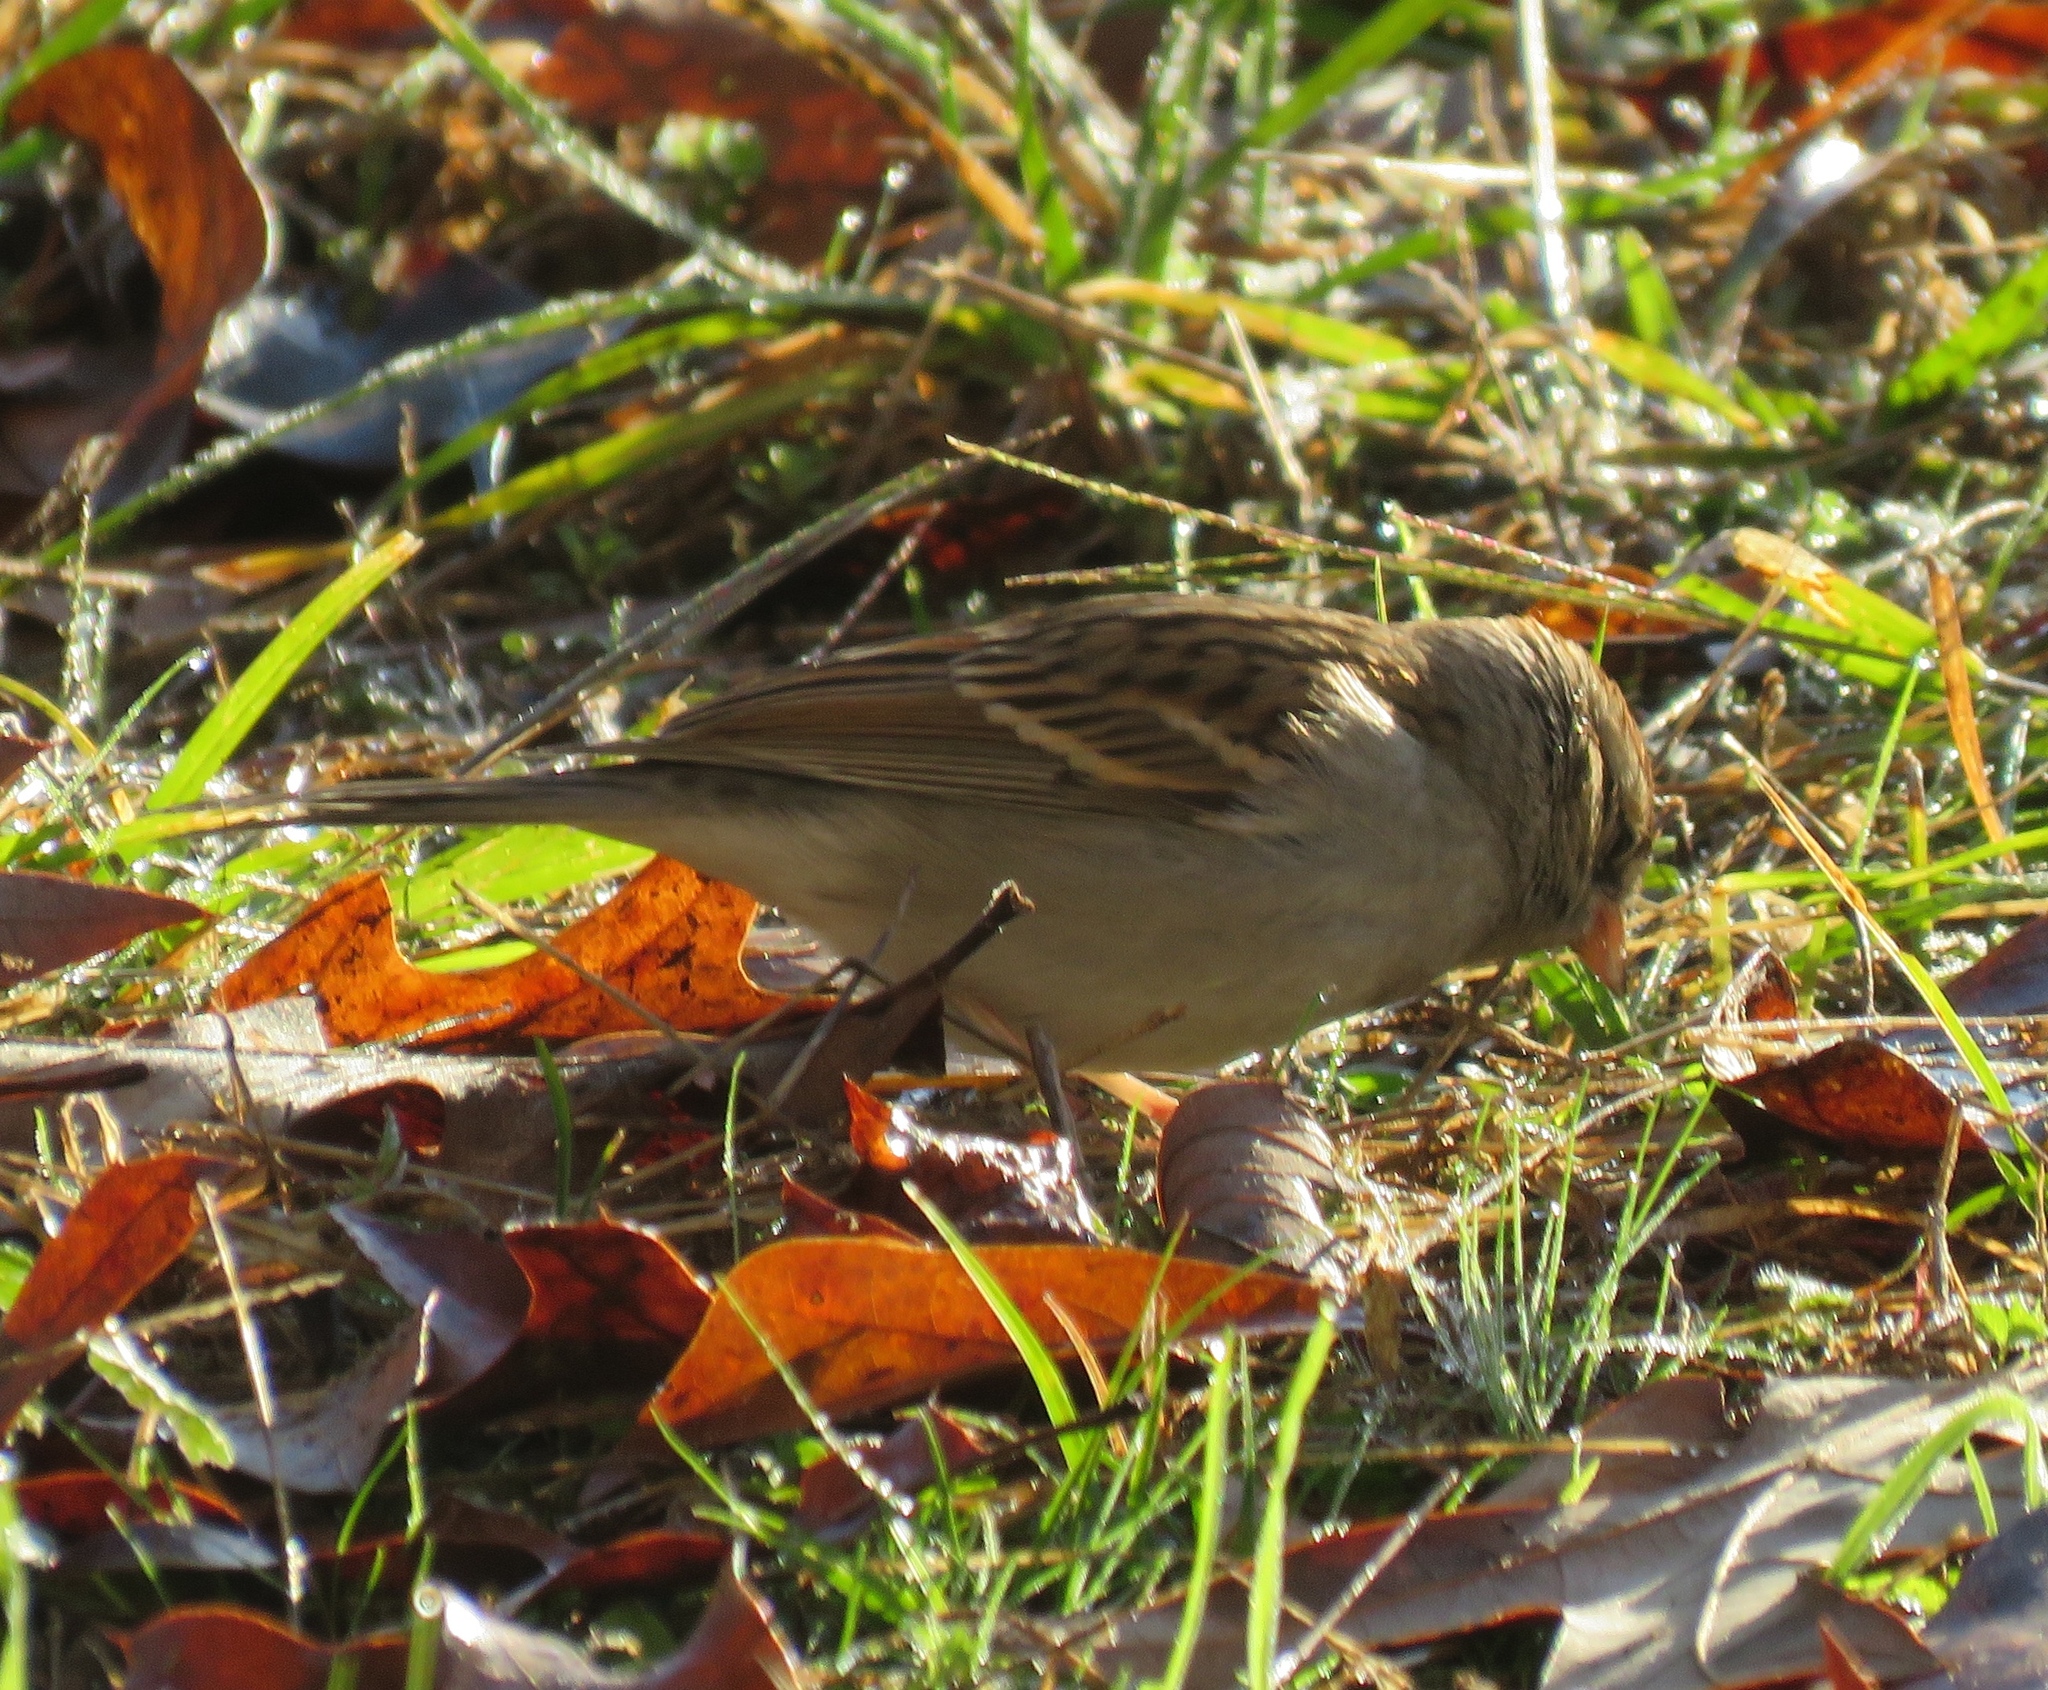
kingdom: Animalia
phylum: Chordata
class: Aves
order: Passeriformes
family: Passerellidae
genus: Spizella
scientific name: Spizella passerina
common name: Chipping sparrow
